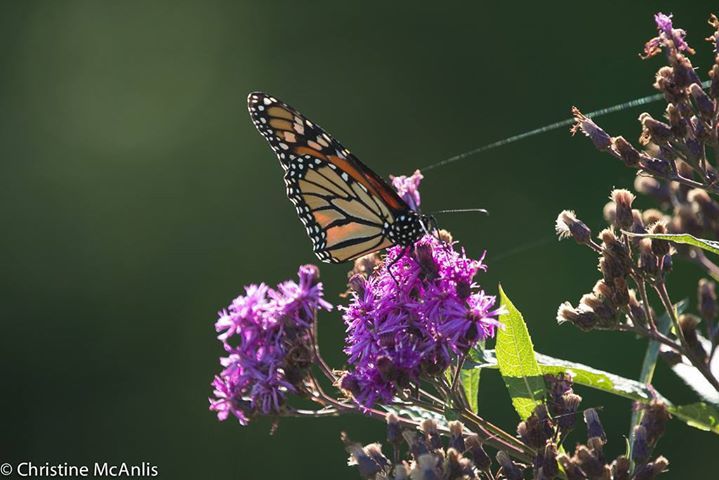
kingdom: Animalia
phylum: Arthropoda
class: Insecta
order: Lepidoptera
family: Nymphalidae
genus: Danaus
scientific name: Danaus plexippus
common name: Monarch
